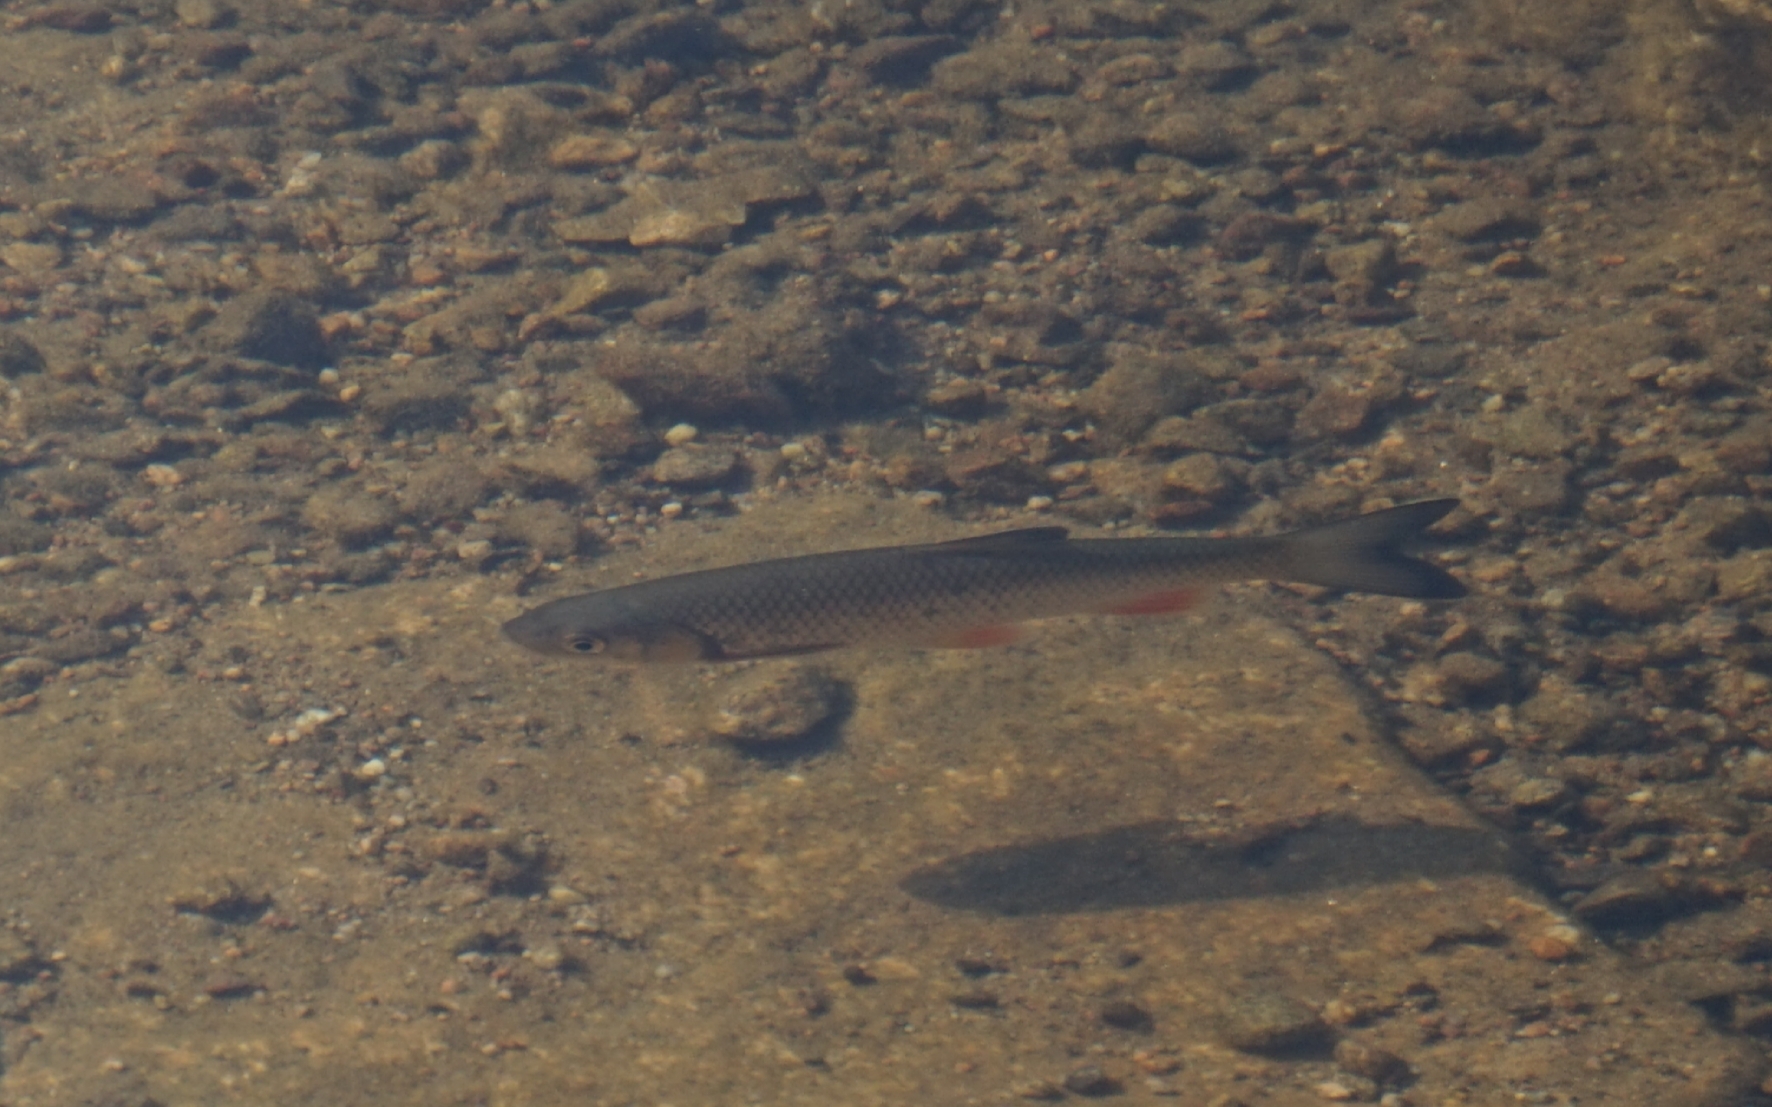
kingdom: Animalia
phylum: Chordata
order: Cypriniformes
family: Cyprinidae
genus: Squalius
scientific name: Squalius cephalus
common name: Chub
